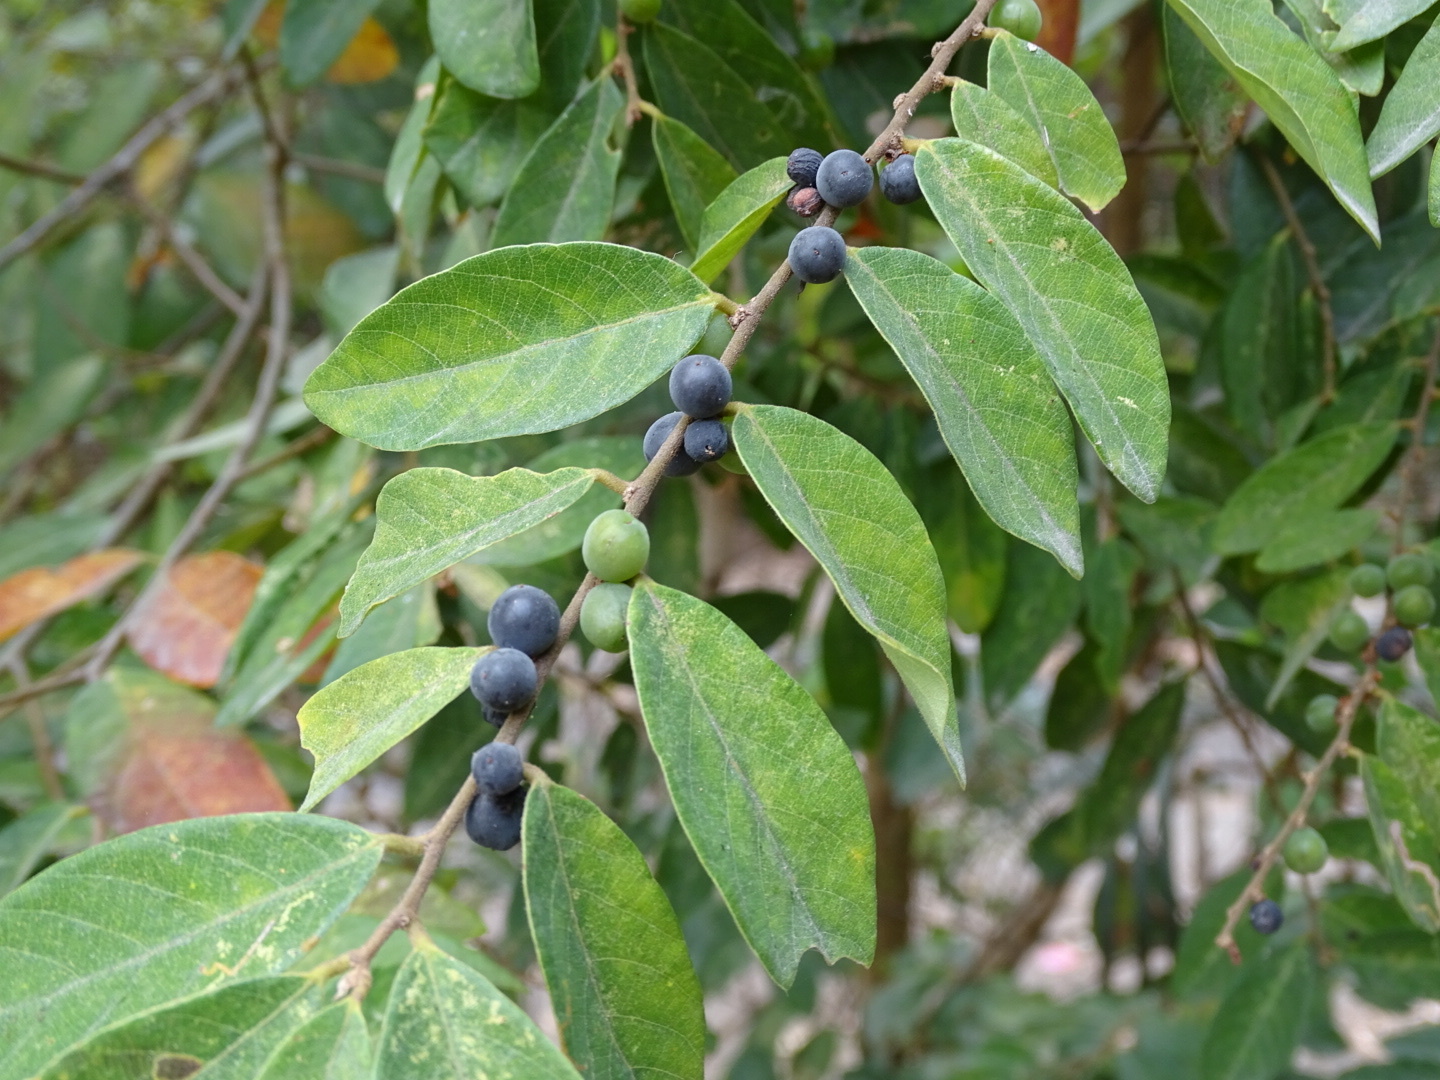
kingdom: Plantae
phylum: Tracheophyta
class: Magnoliopsida
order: Malpighiales
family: Phyllanthaceae
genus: Bridelia
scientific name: Bridelia tomentosa
